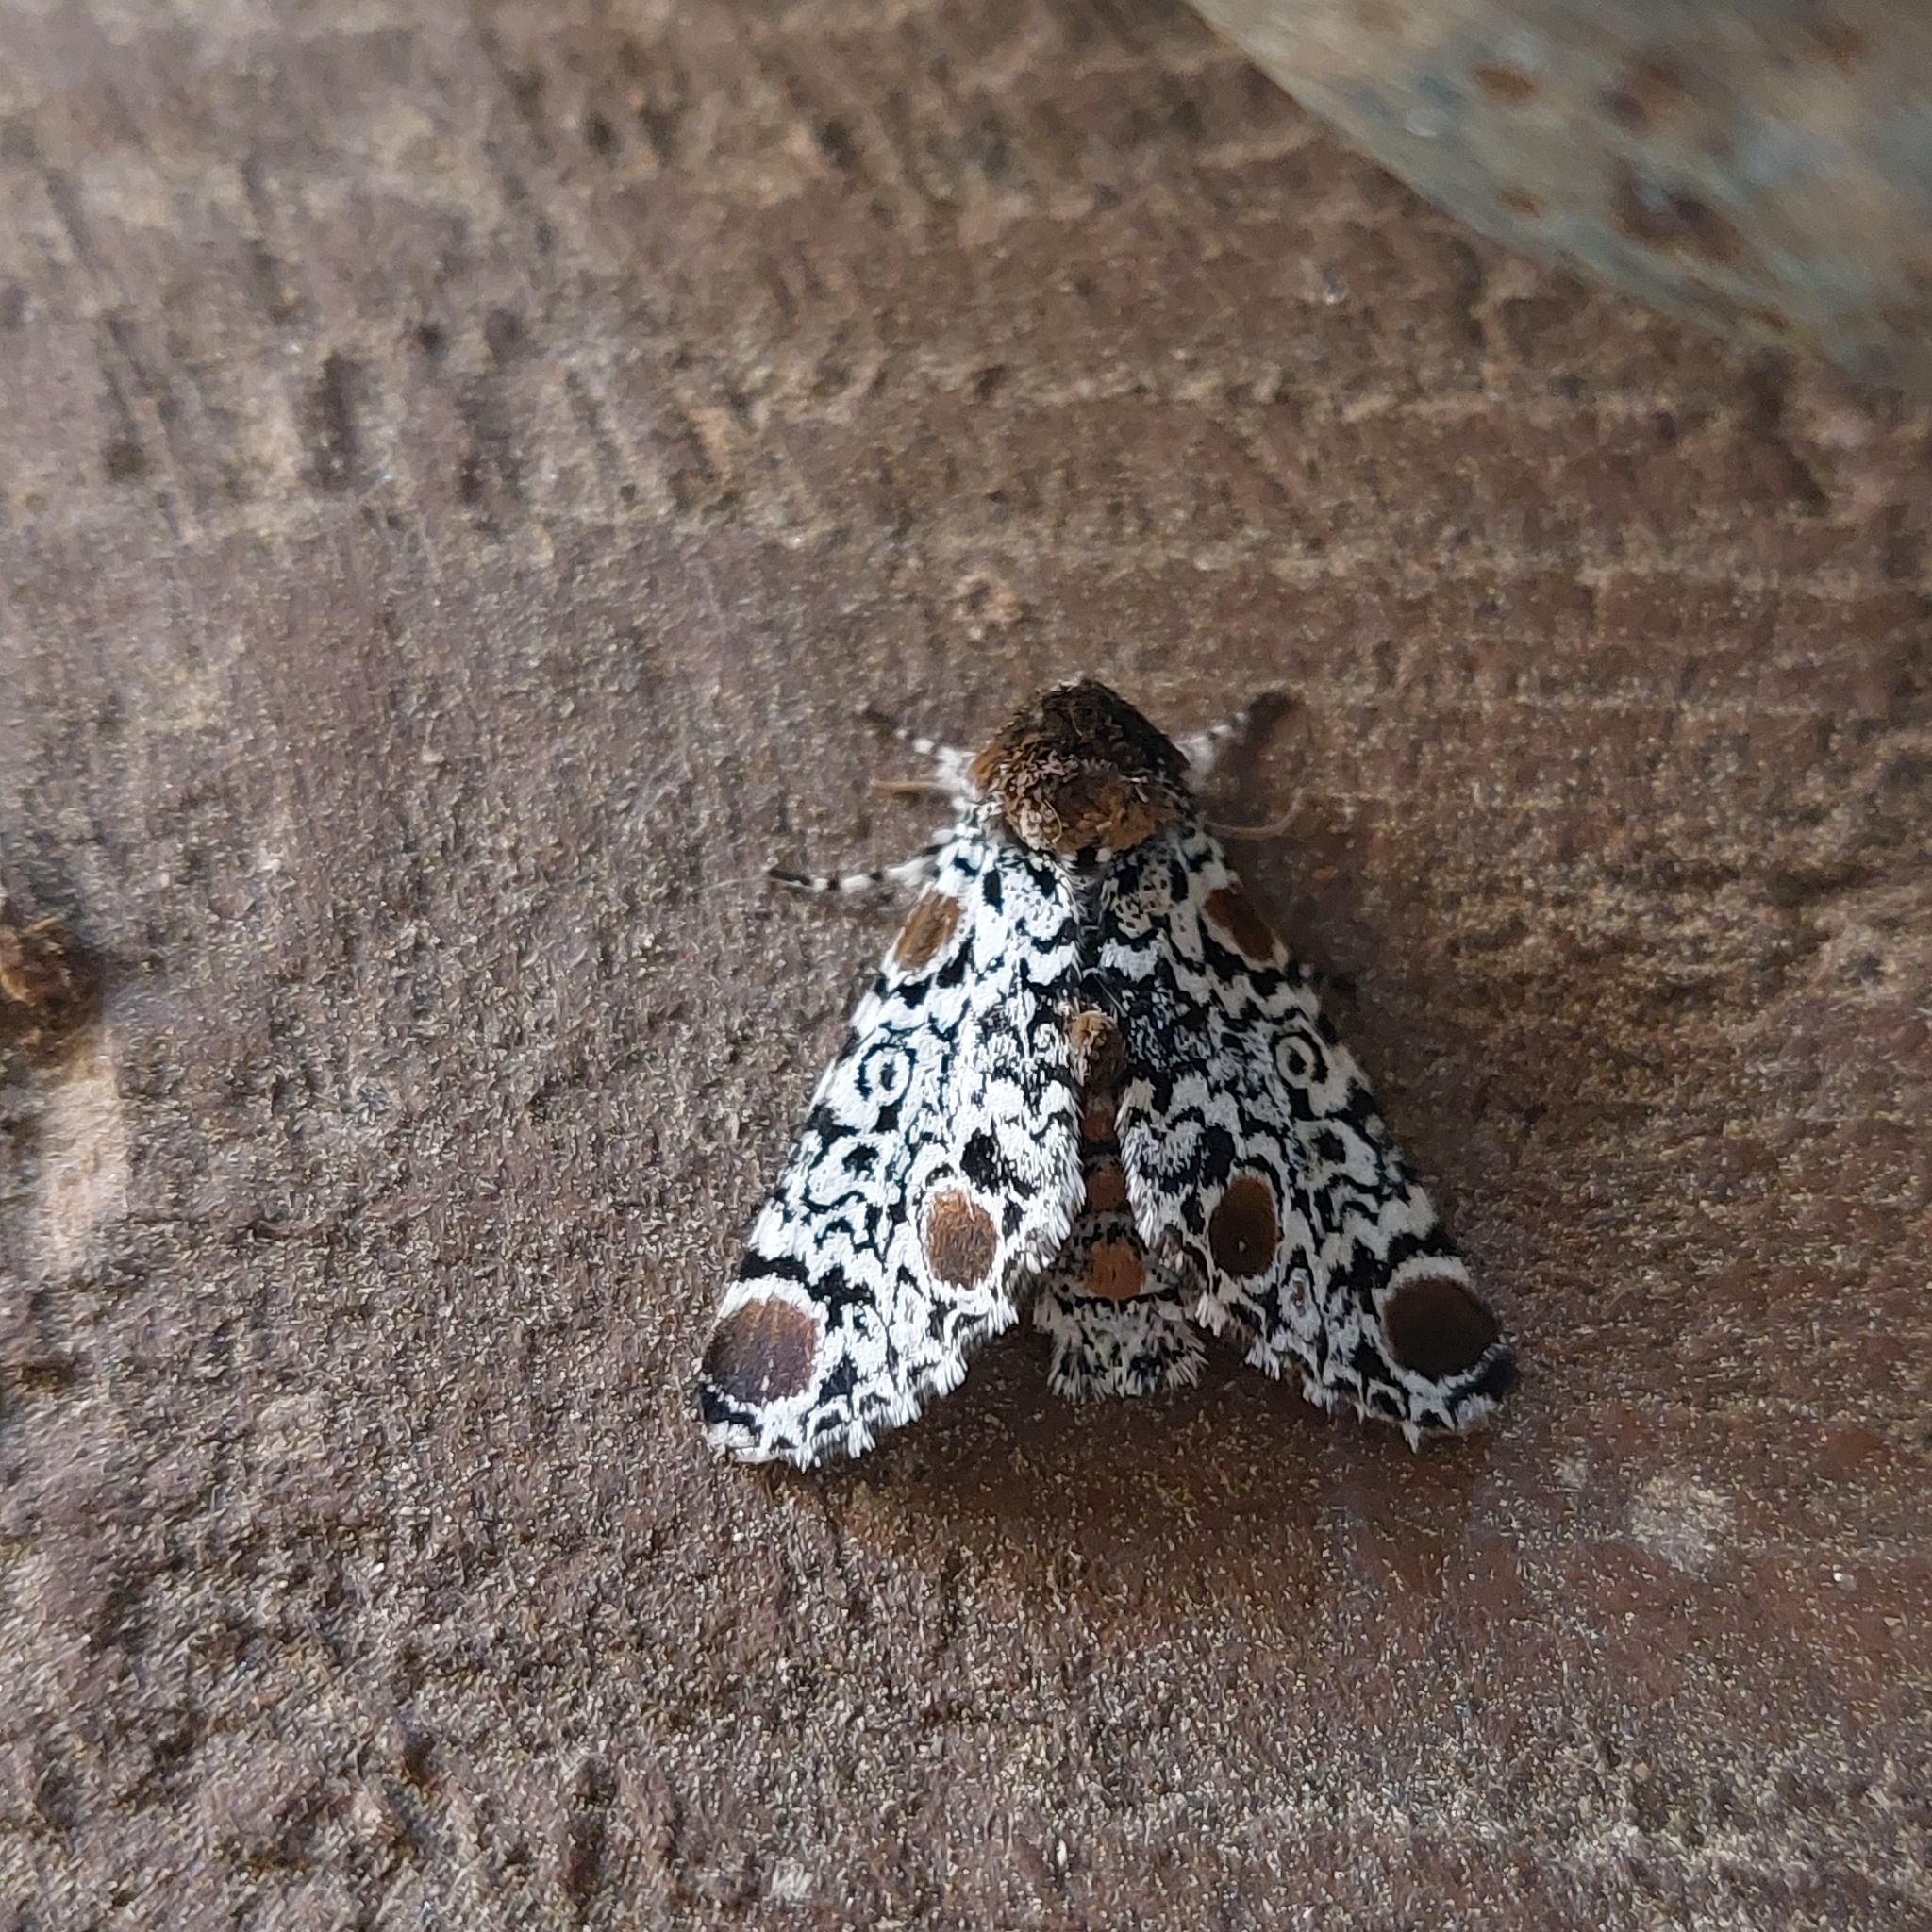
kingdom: Animalia
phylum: Arthropoda
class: Insecta
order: Lepidoptera
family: Noctuidae
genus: Harrisimemna
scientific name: Harrisimemna trisignata
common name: Harris threespot
